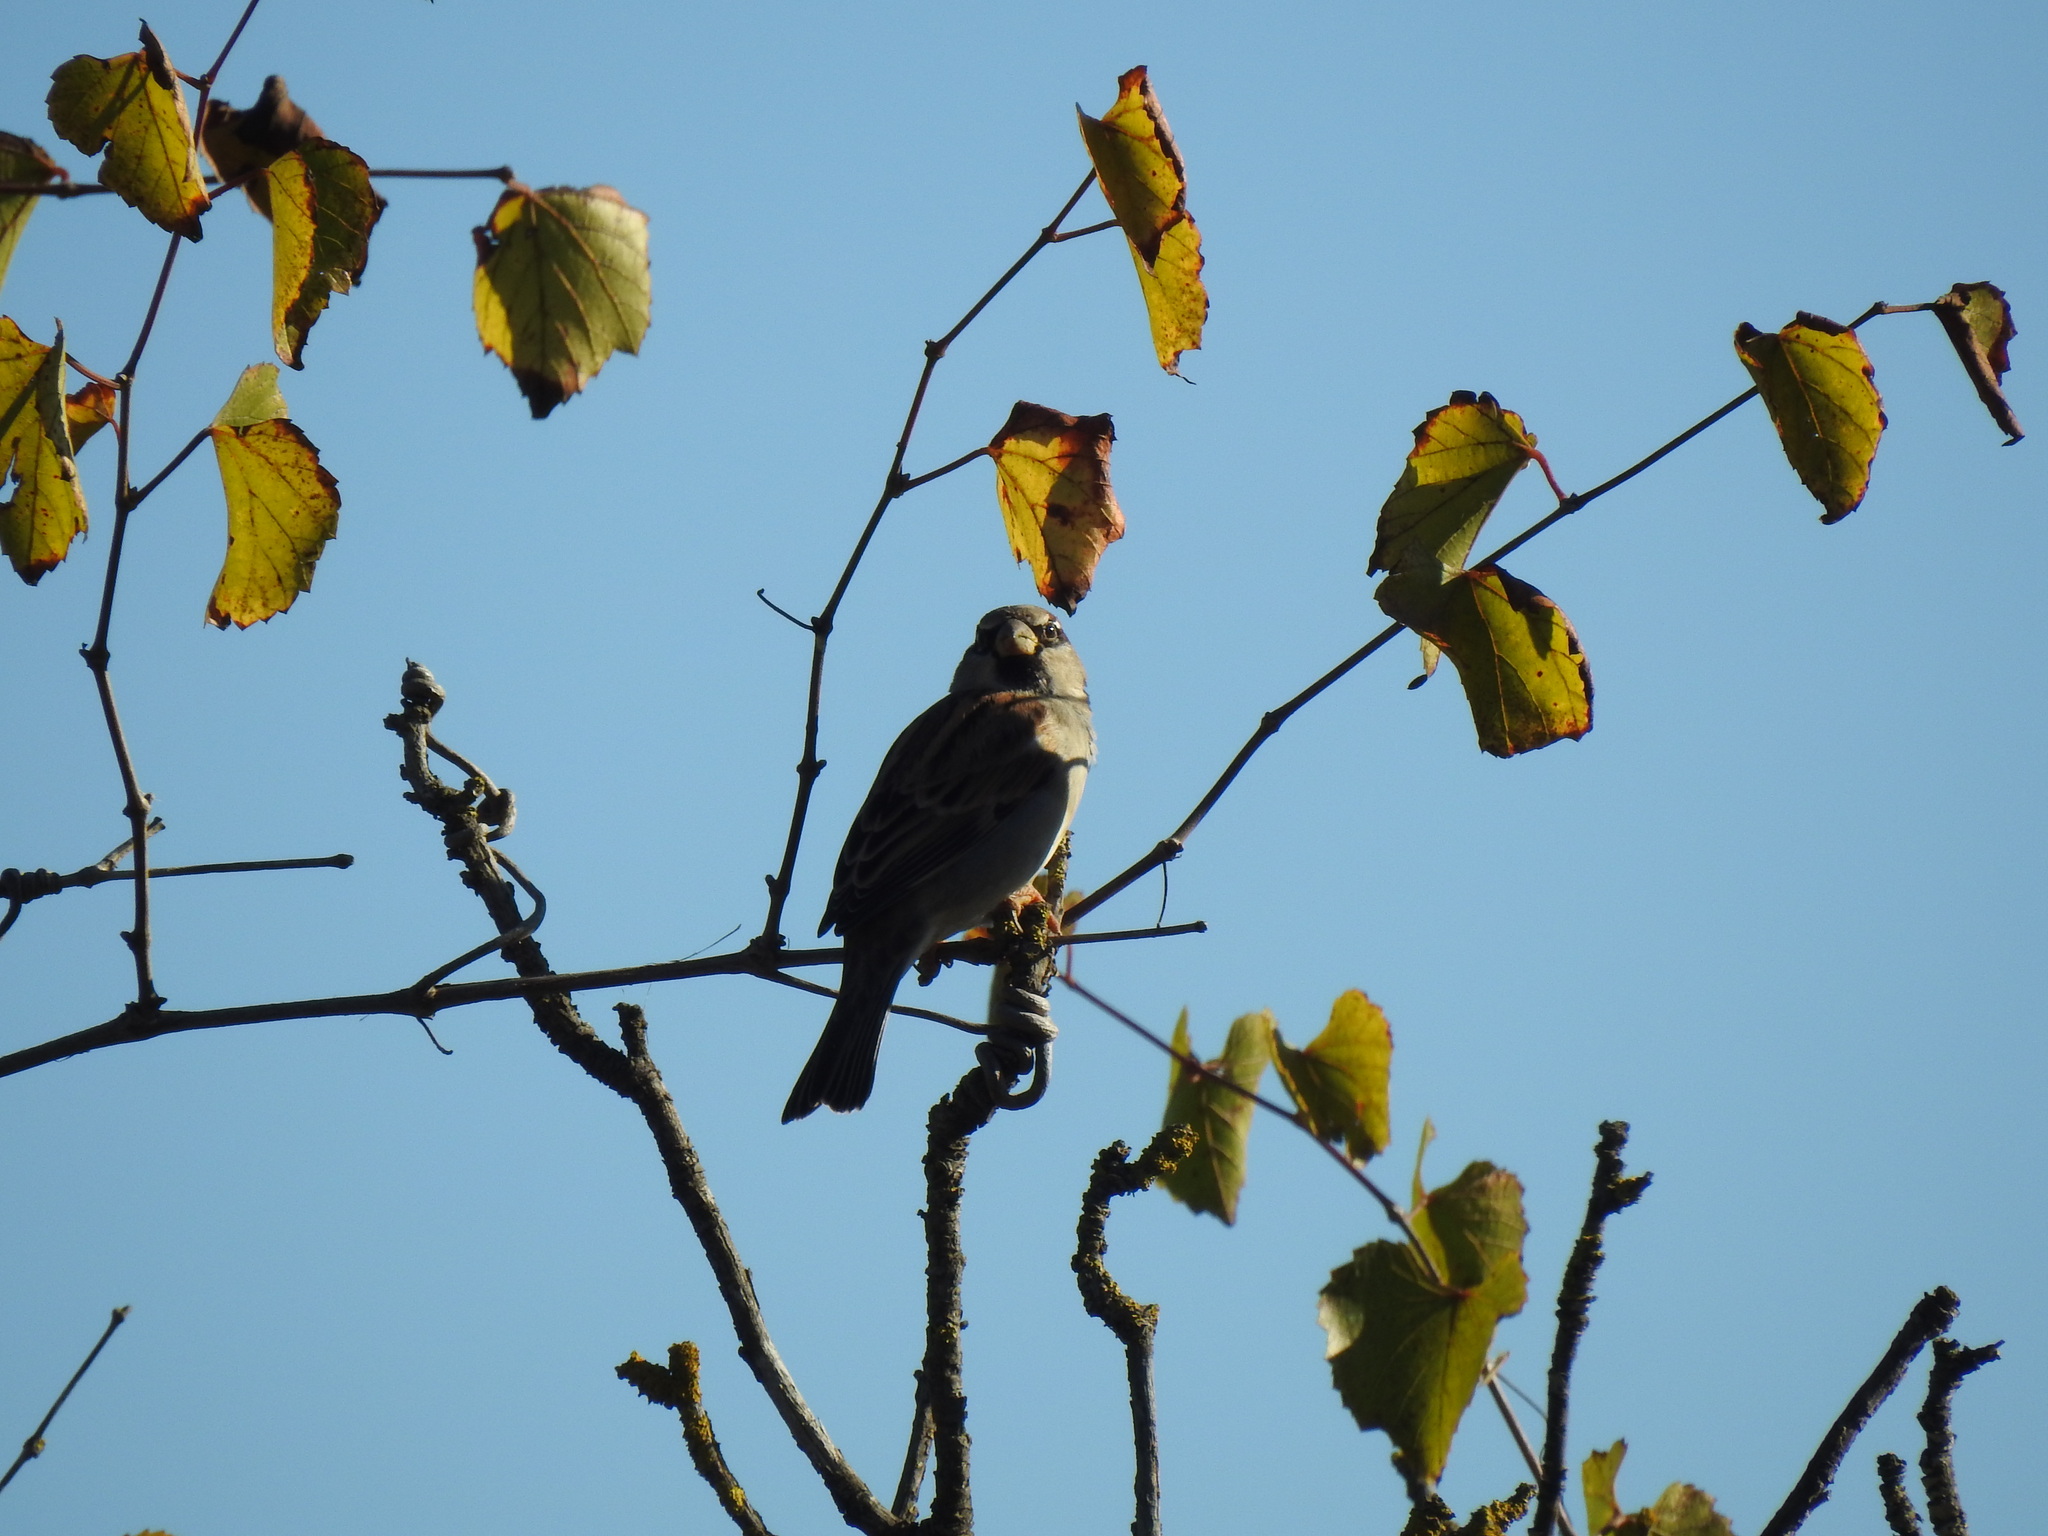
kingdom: Animalia
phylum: Chordata
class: Aves
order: Passeriformes
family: Passeridae
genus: Passer
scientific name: Passer domesticus
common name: House sparrow
